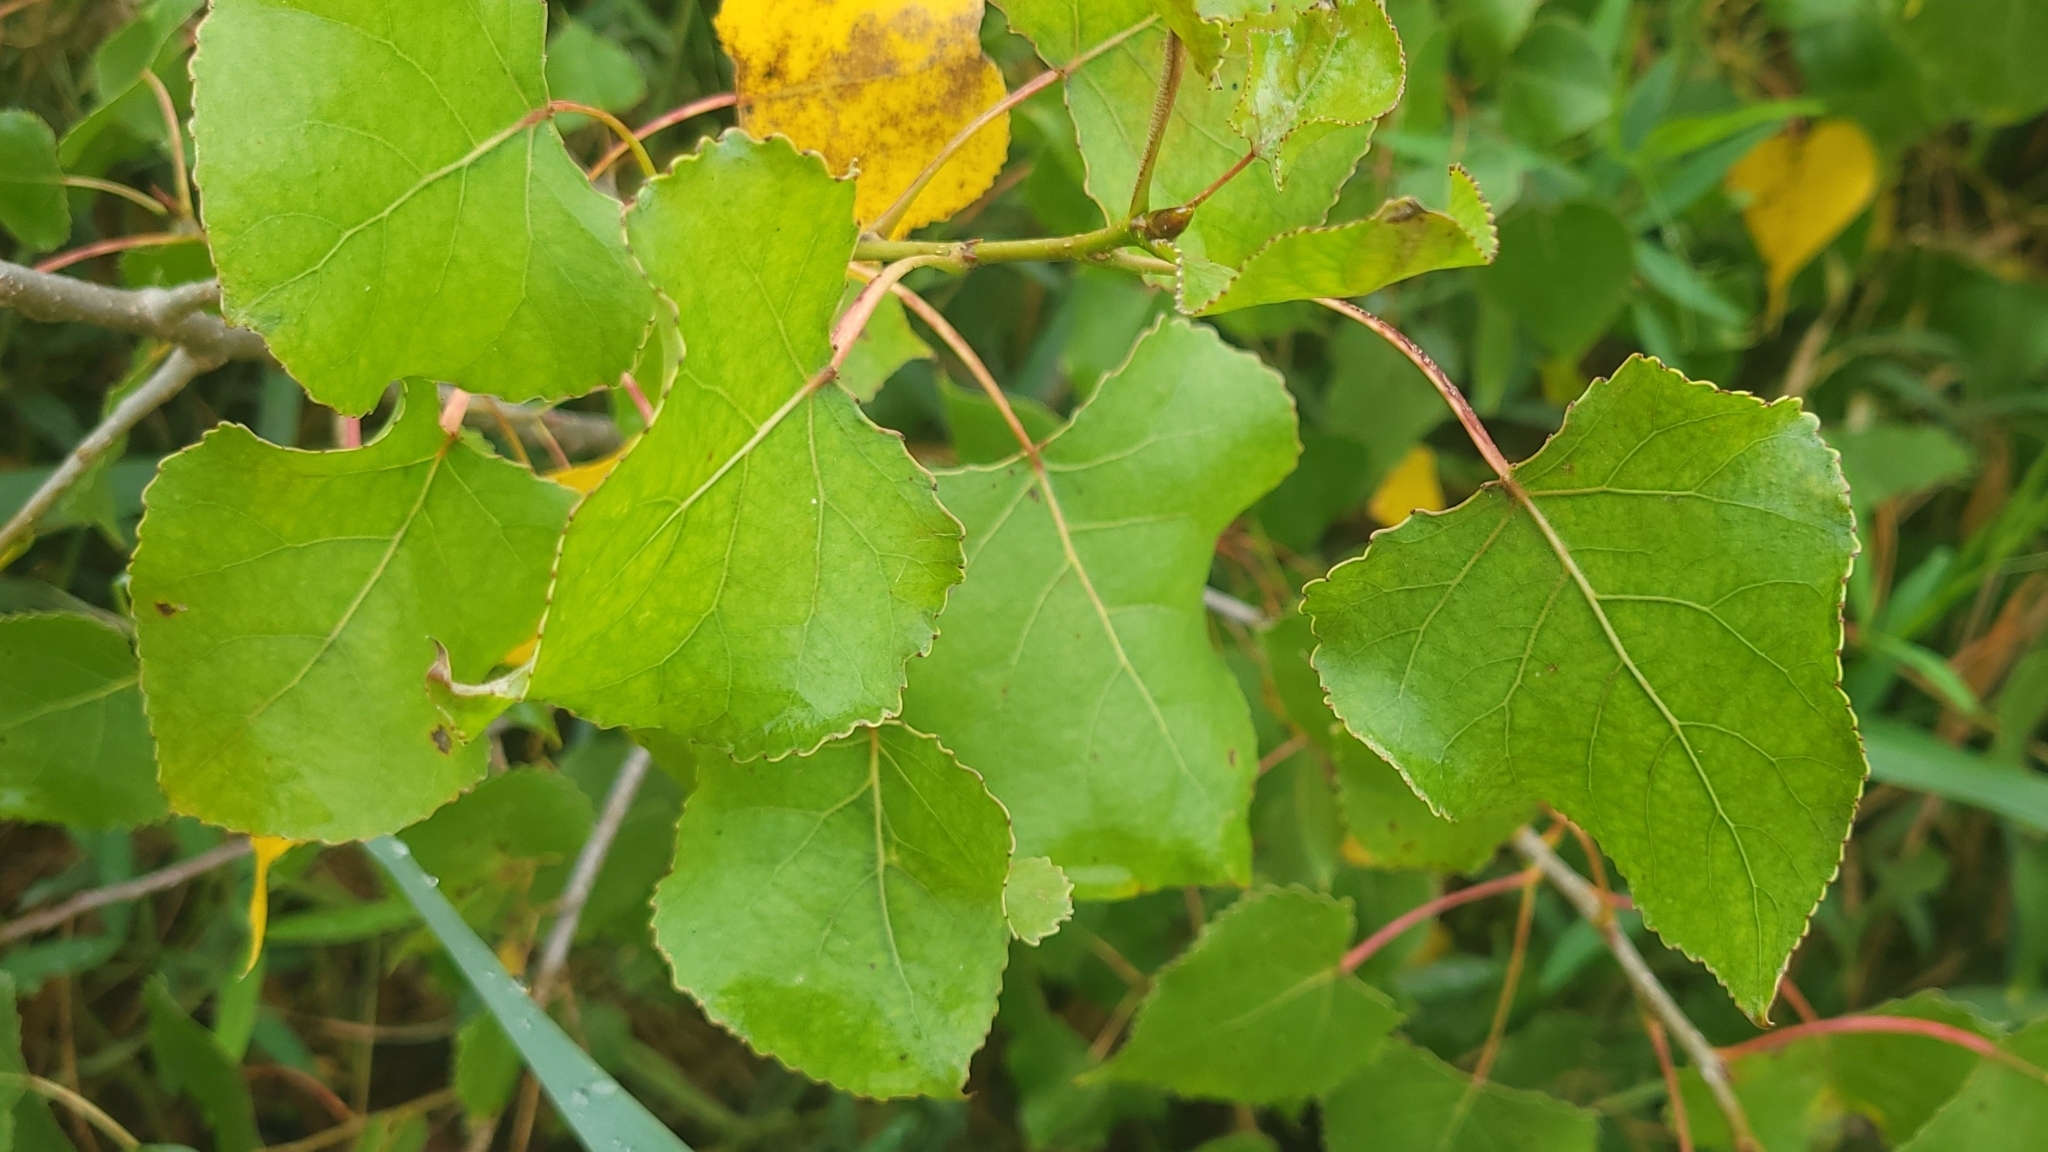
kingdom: Plantae
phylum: Tracheophyta
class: Magnoliopsida
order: Malpighiales
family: Salicaceae
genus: Populus
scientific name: Populus deltoides
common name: Eastern cottonwood
